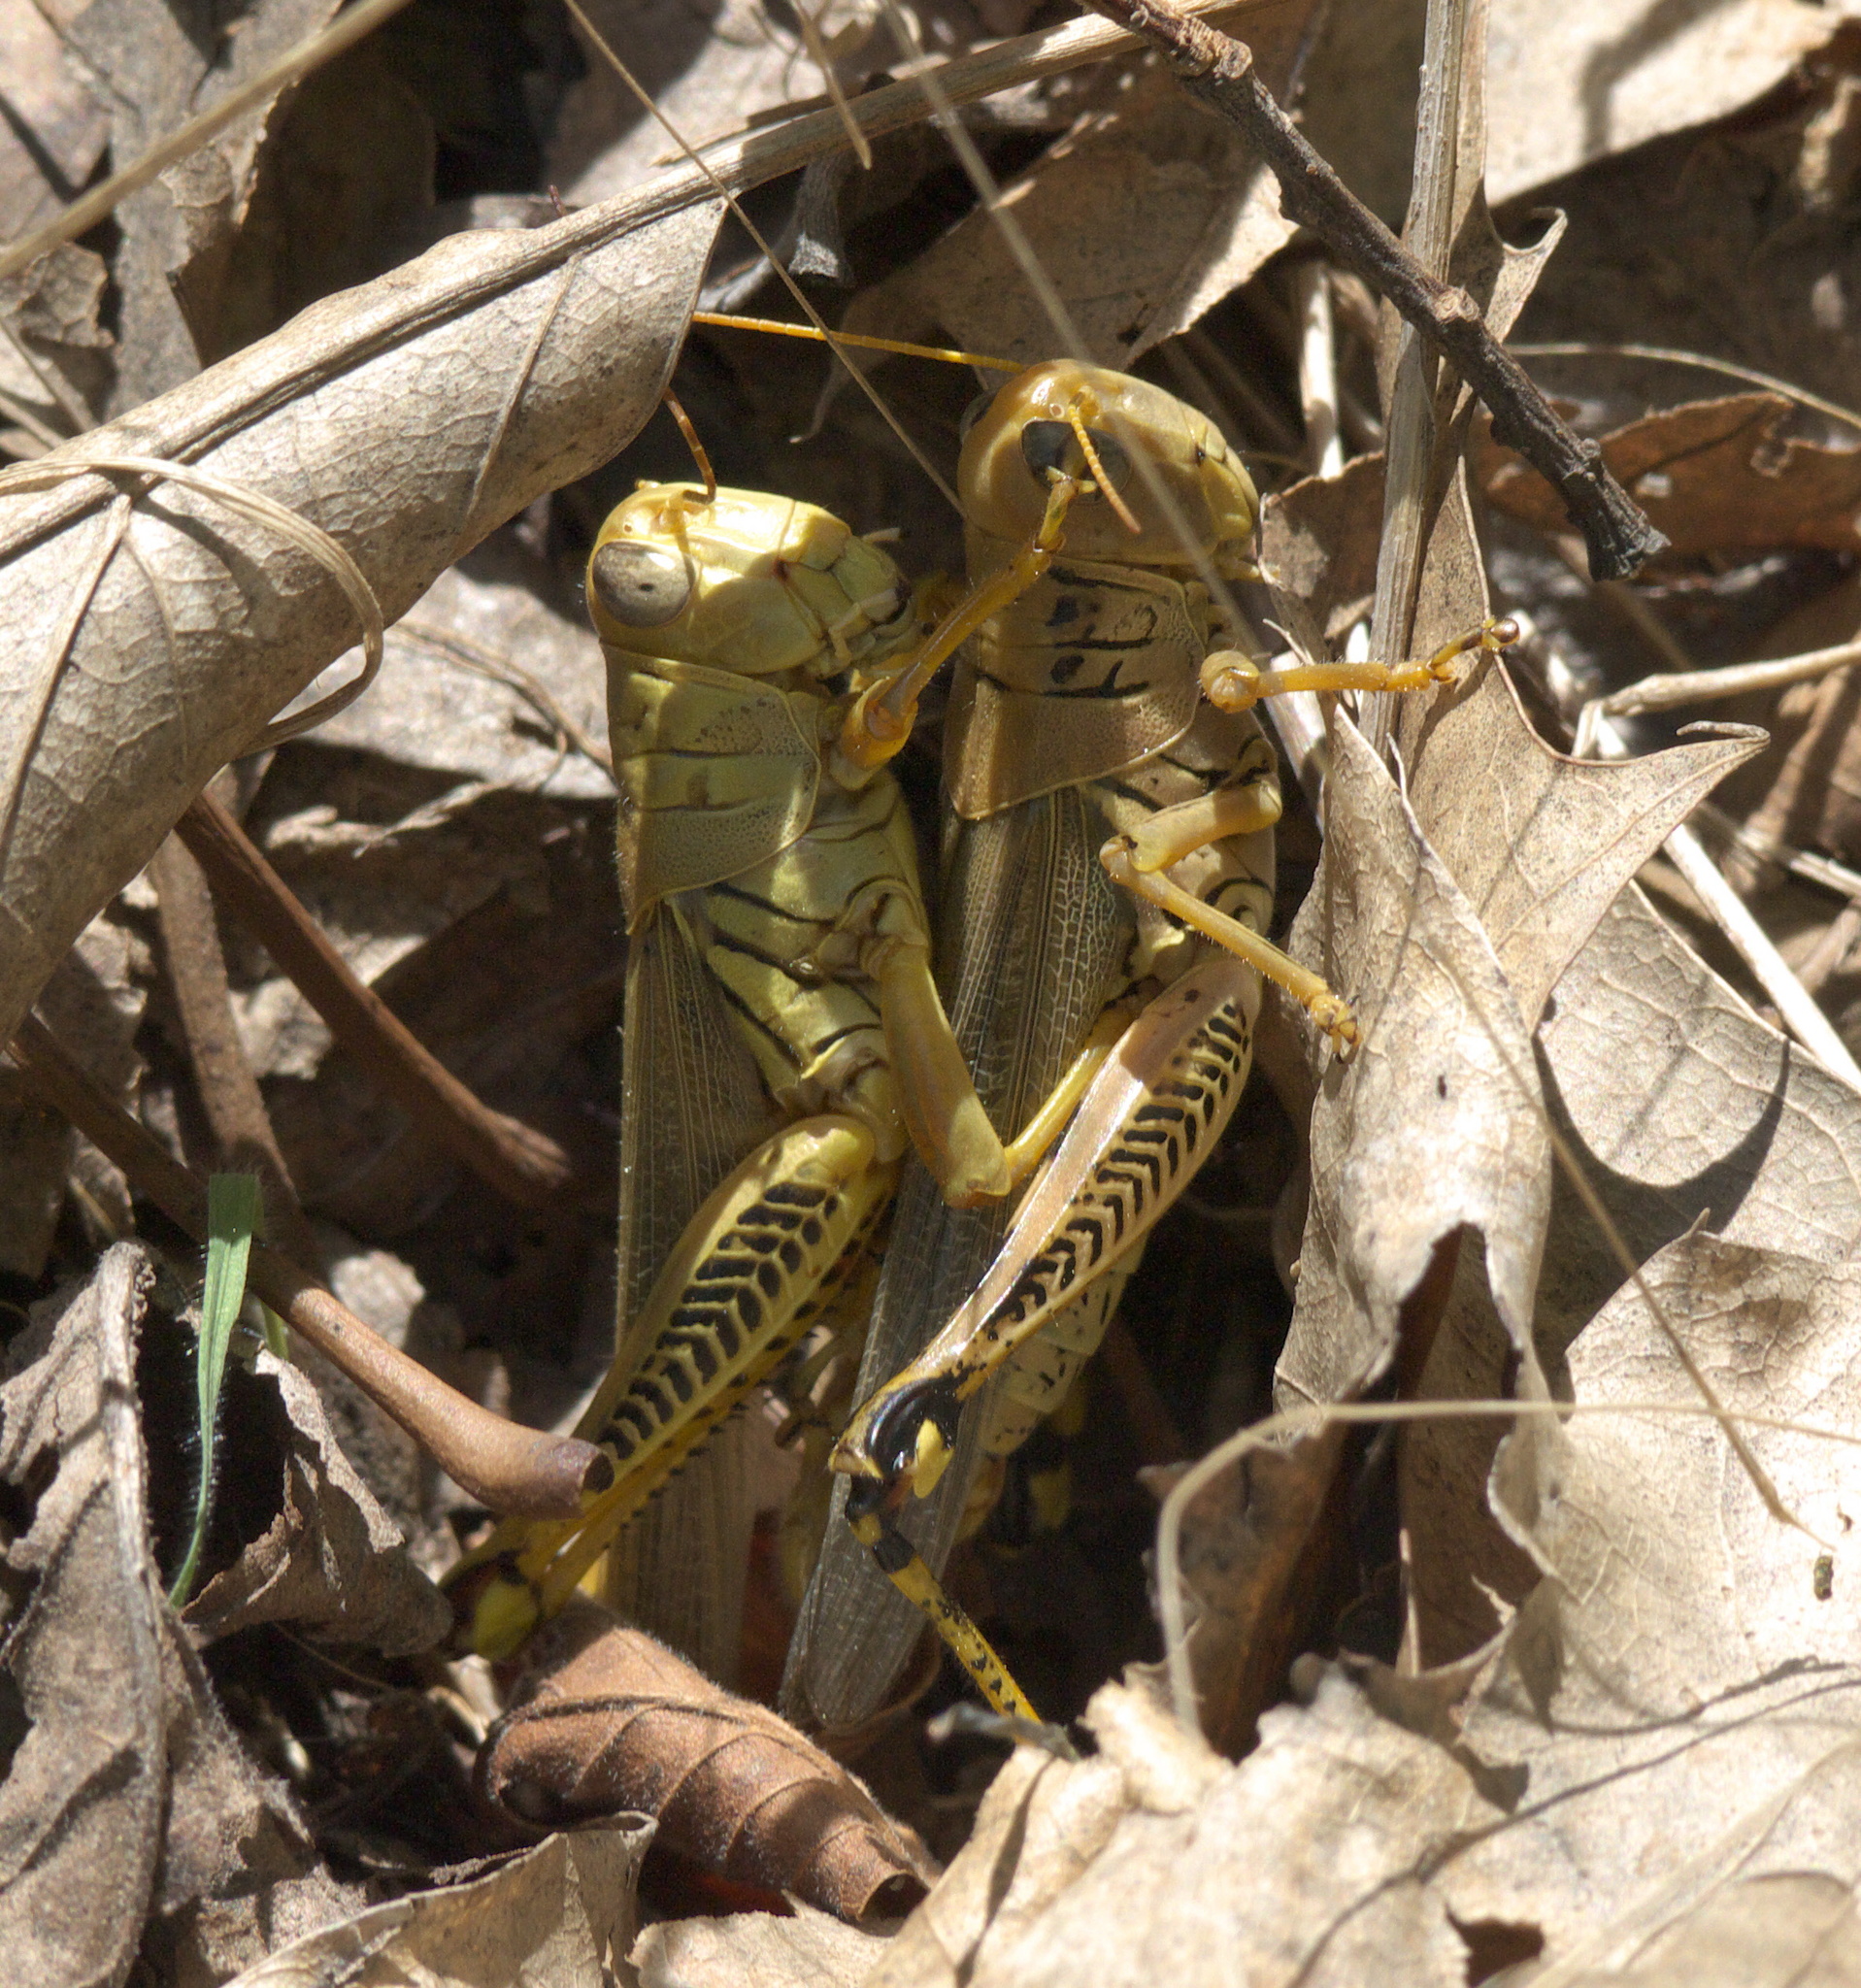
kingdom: Animalia
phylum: Arthropoda
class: Insecta
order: Orthoptera
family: Acrididae
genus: Melanoplus
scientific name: Melanoplus differentialis
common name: Differential grasshopper
